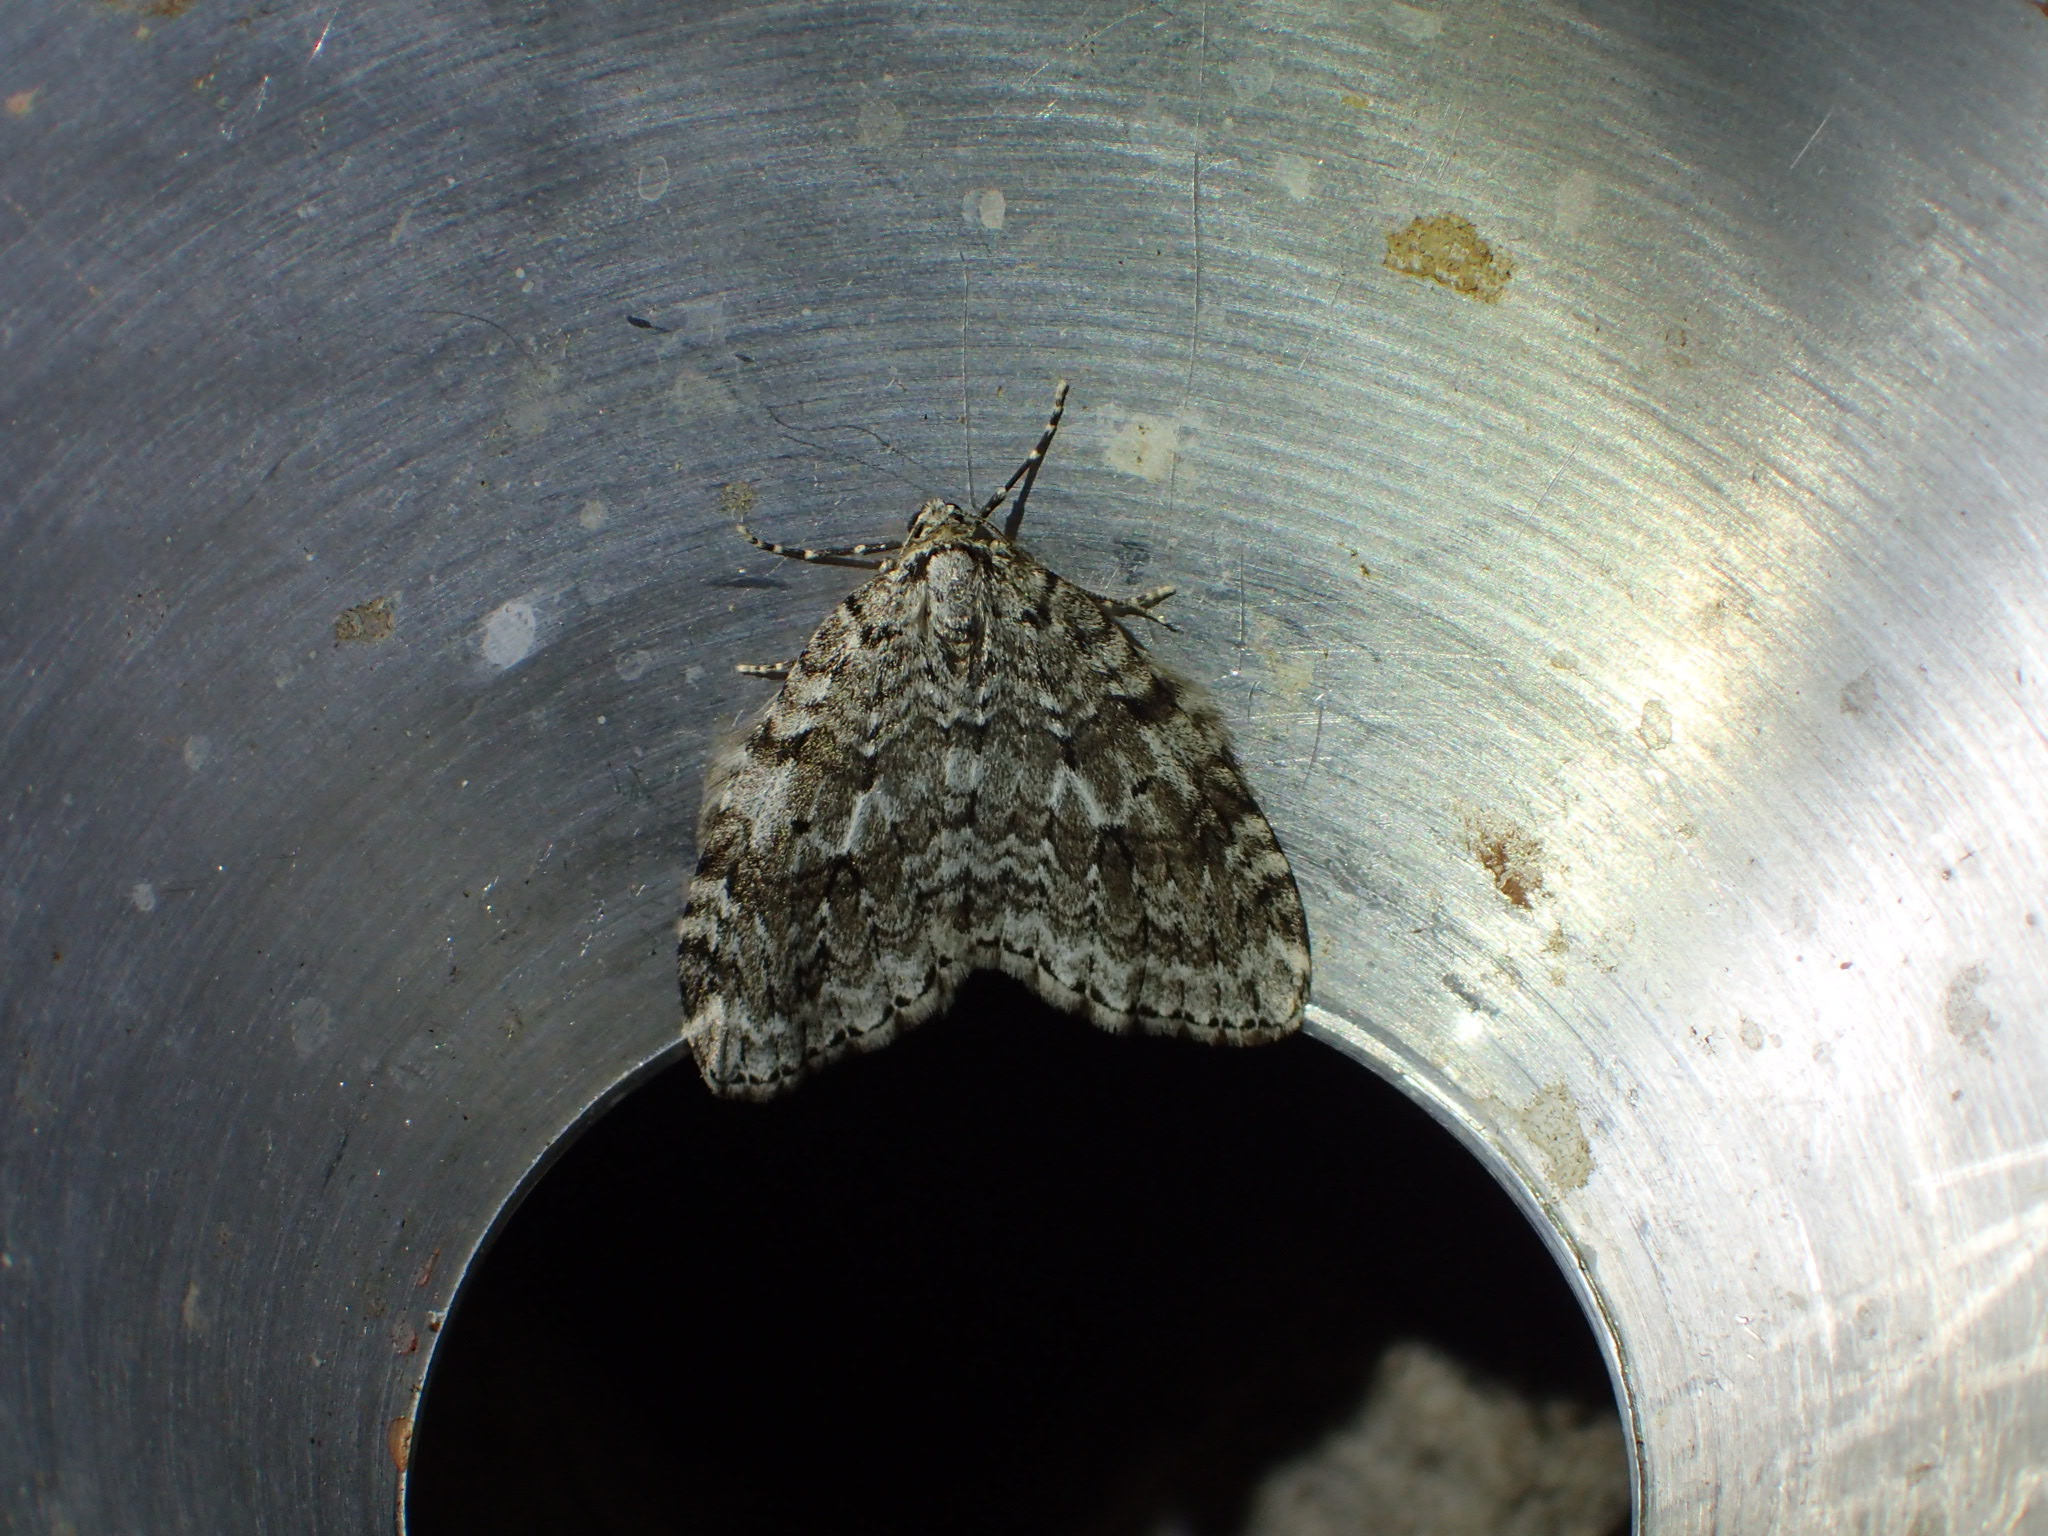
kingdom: Animalia
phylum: Arthropoda
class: Insecta
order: Lepidoptera
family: Geometridae
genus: Epirrita
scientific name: Epirrita autumnata
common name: Autumnal moth
